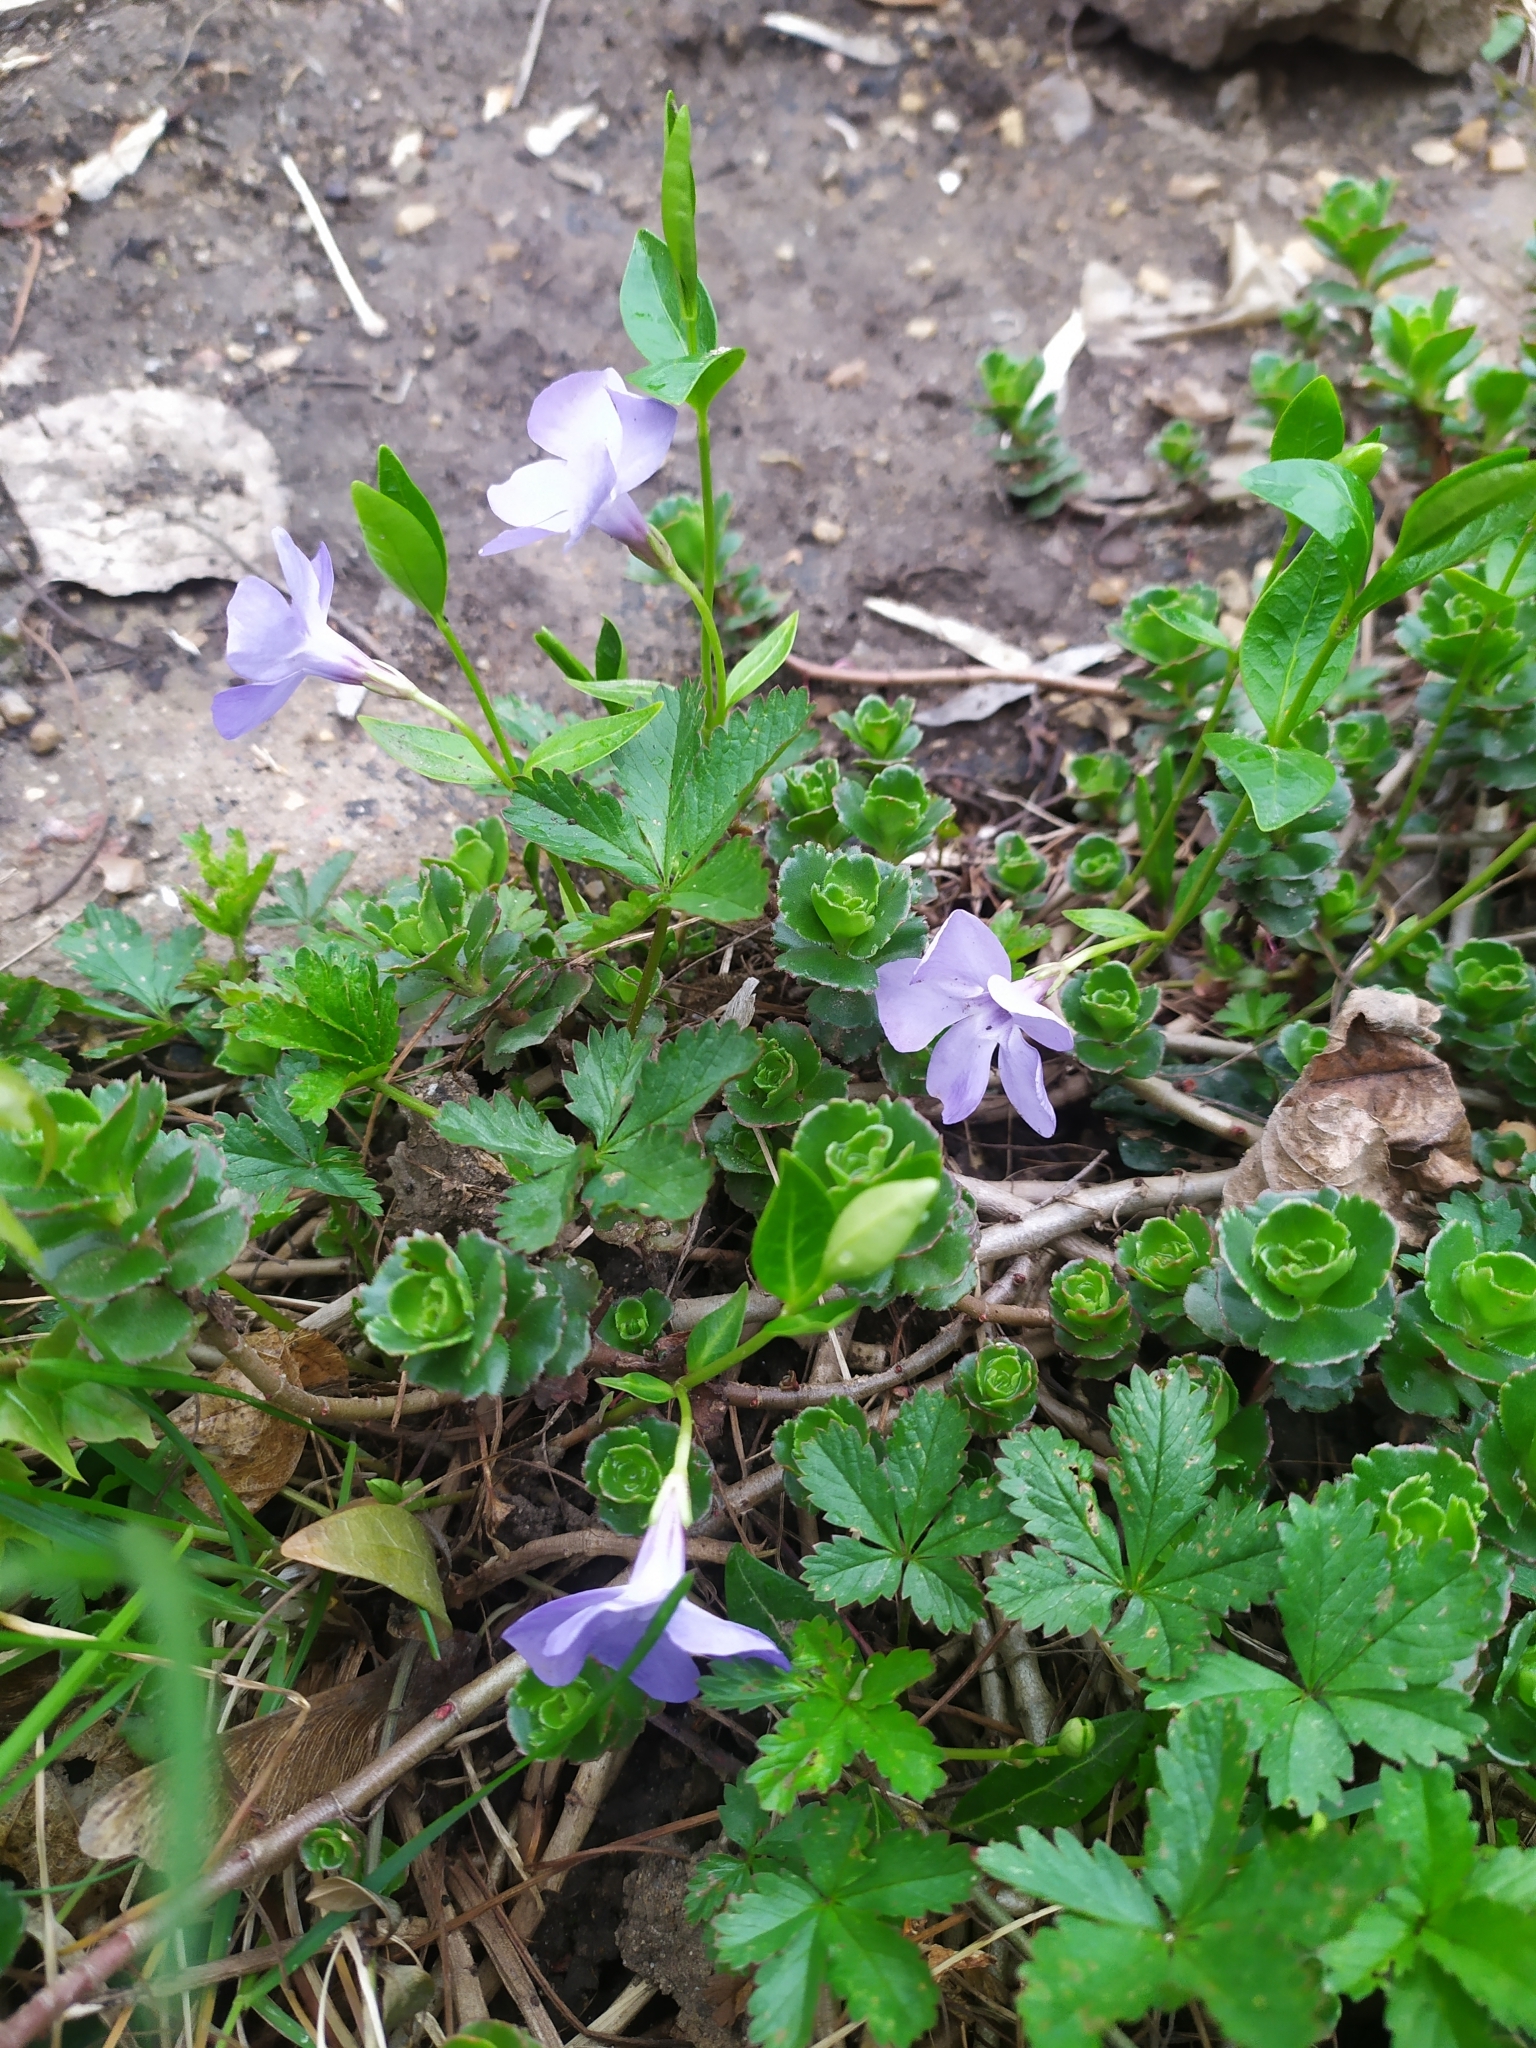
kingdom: Plantae
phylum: Tracheophyta
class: Magnoliopsida
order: Gentianales
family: Apocynaceae
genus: Vinca
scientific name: Vinca minor
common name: Lesser periwinkle
